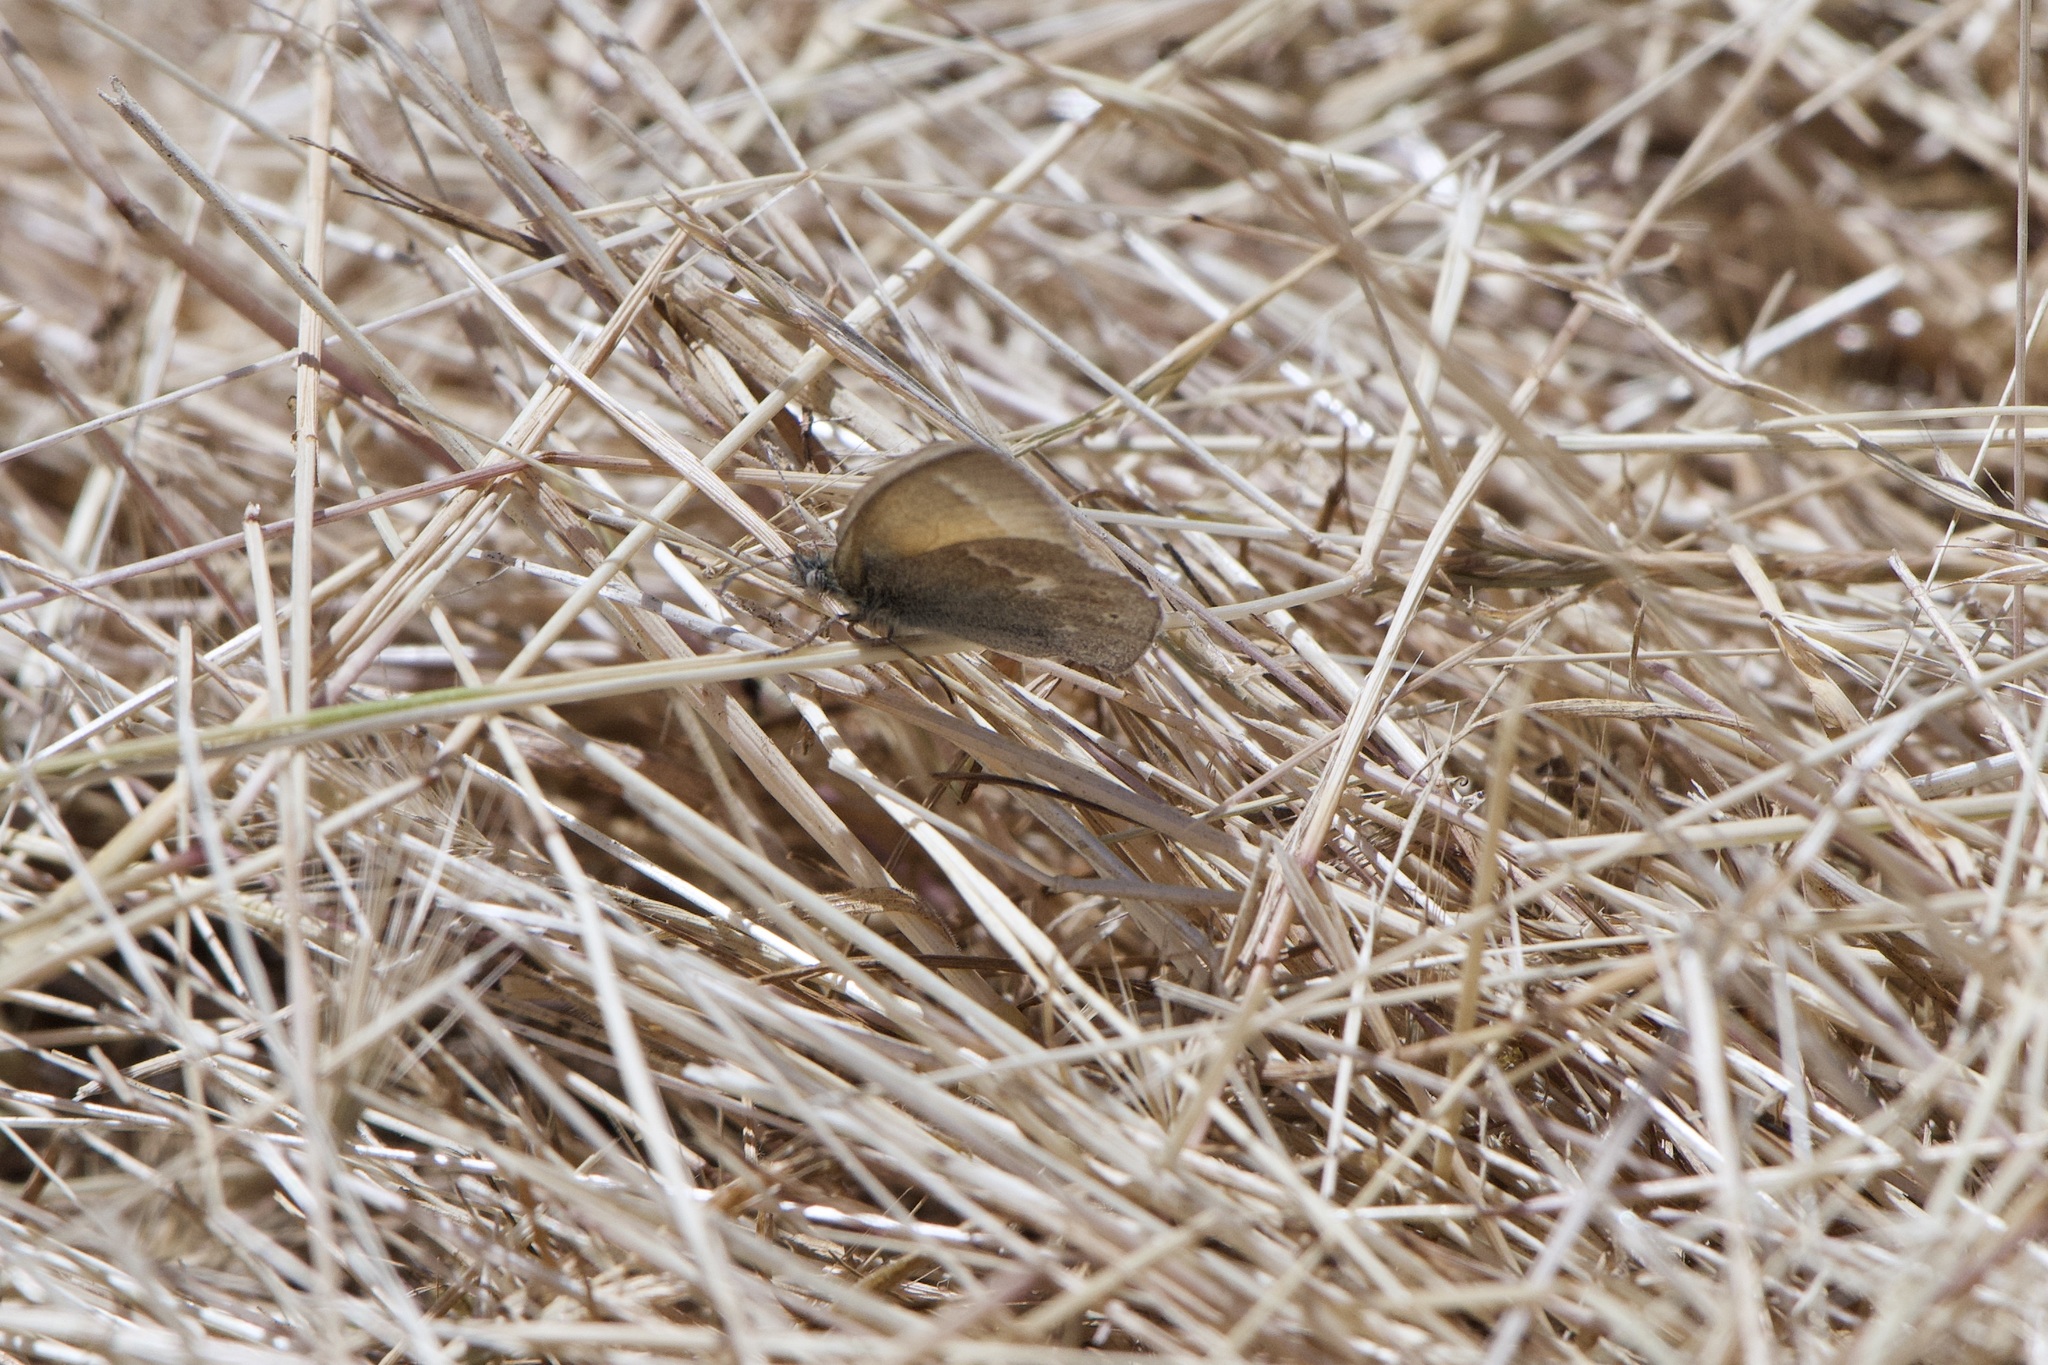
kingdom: Animalia
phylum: Arthropoda
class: Insecta
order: Lepidoptera
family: Nymphalidae
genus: Coenonympha
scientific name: Coenonympha california
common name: Common ringlet
